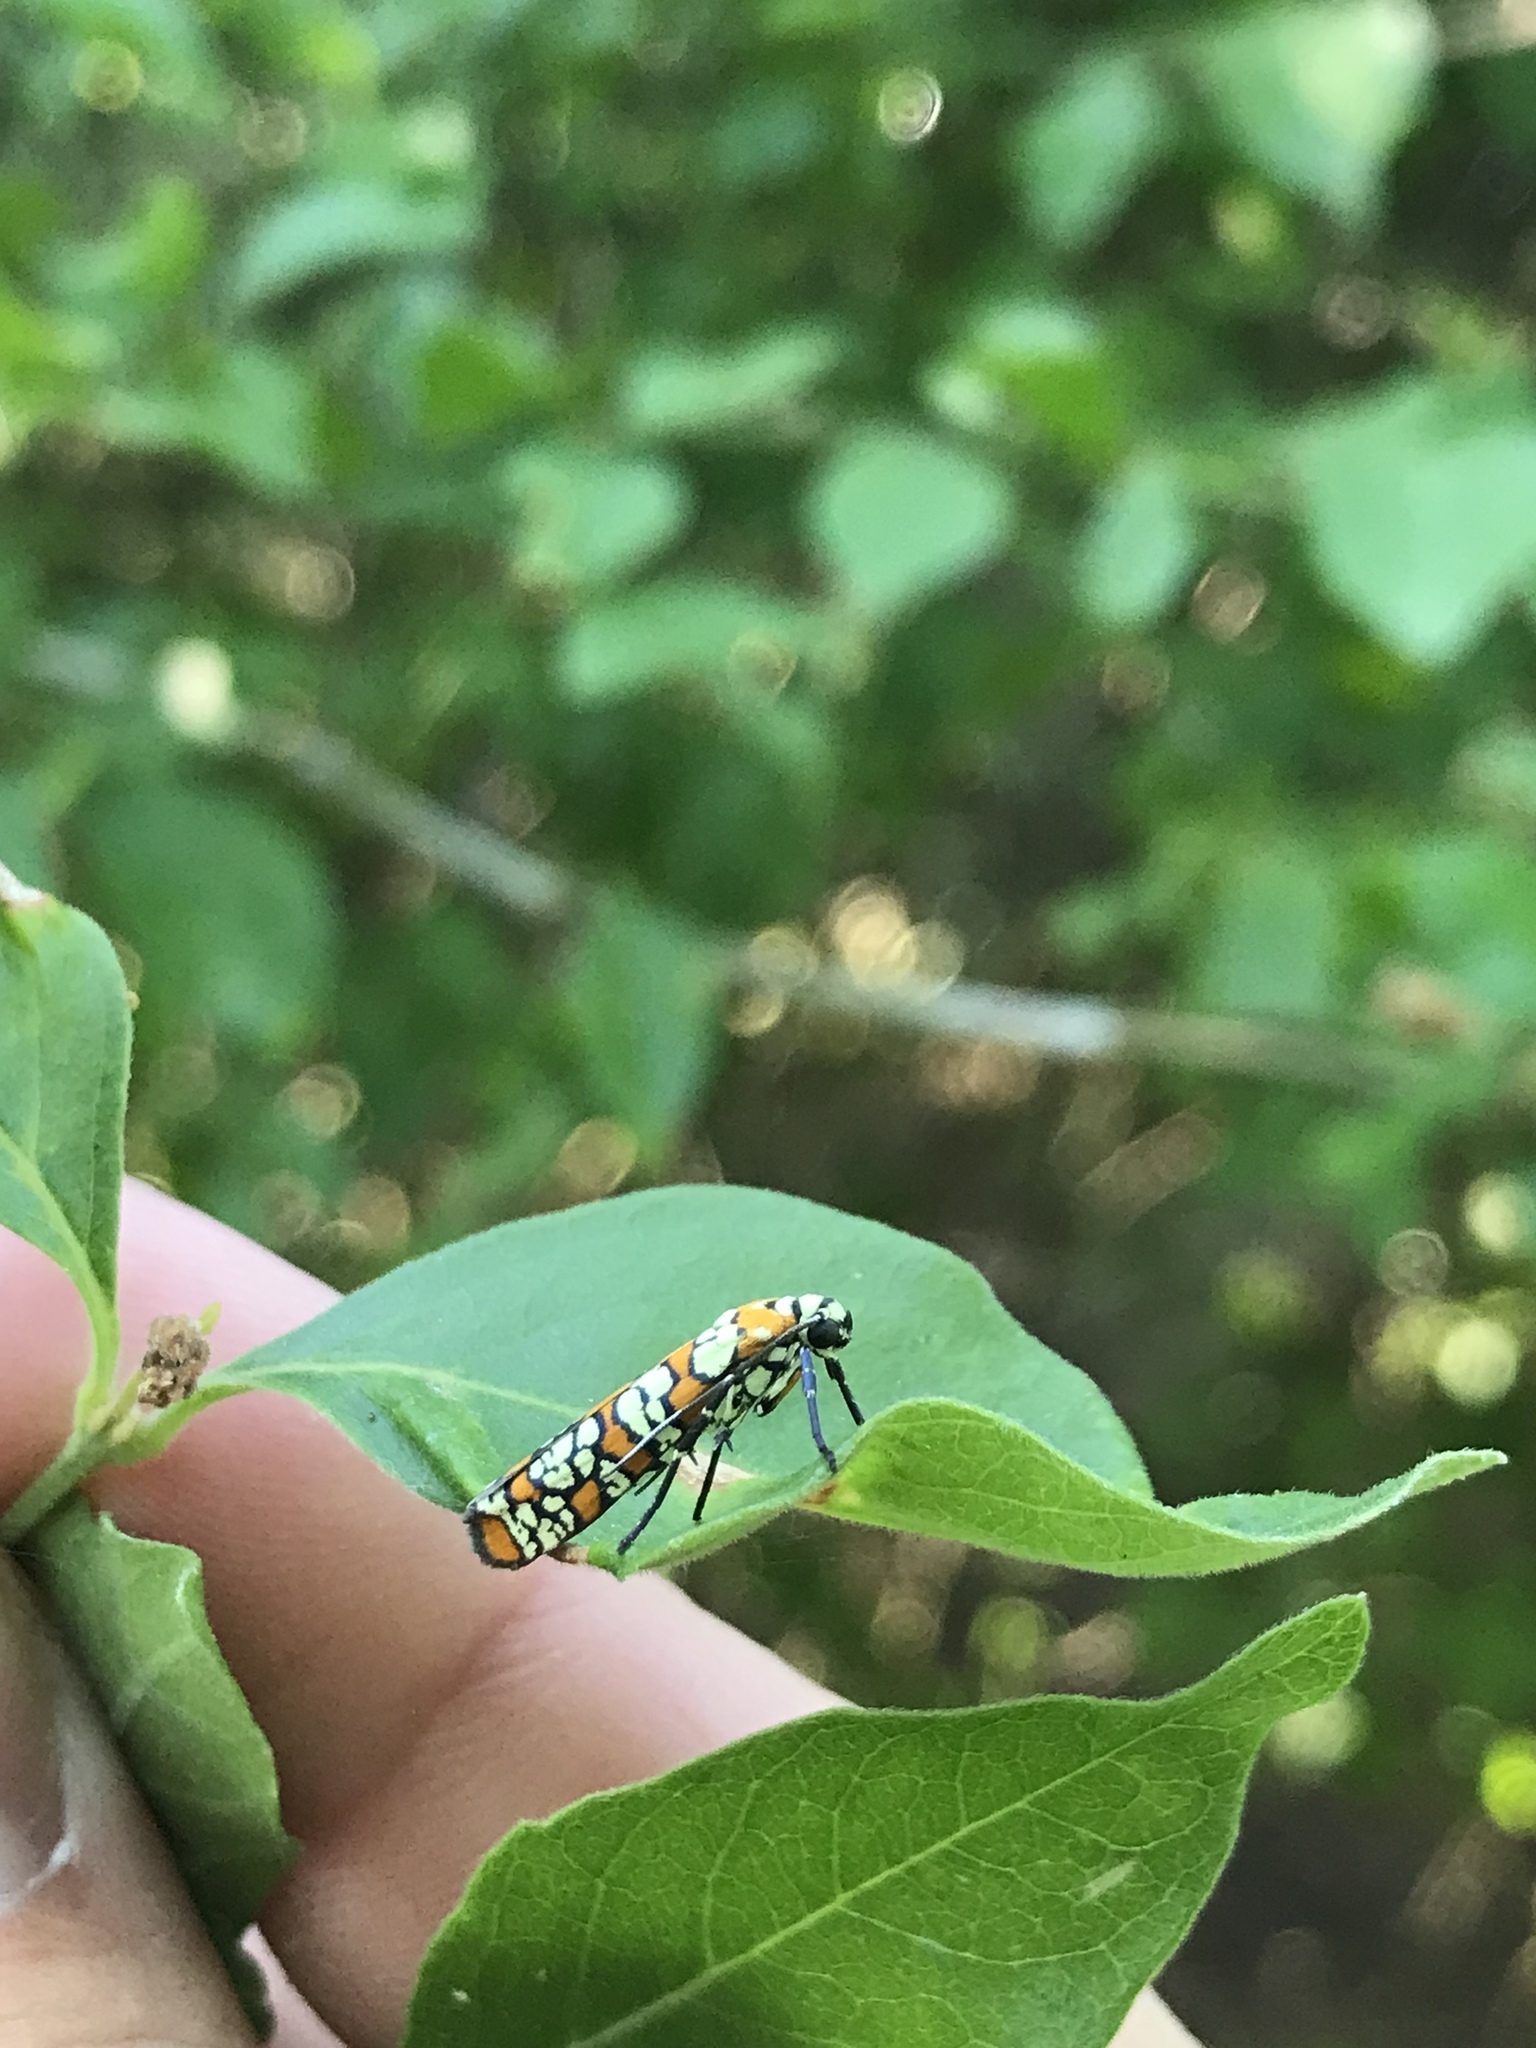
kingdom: Animalia
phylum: Arthropoda
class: Insecta
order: Lepidoptera
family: Attevidae
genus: Atteva
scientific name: Atteva punctella
